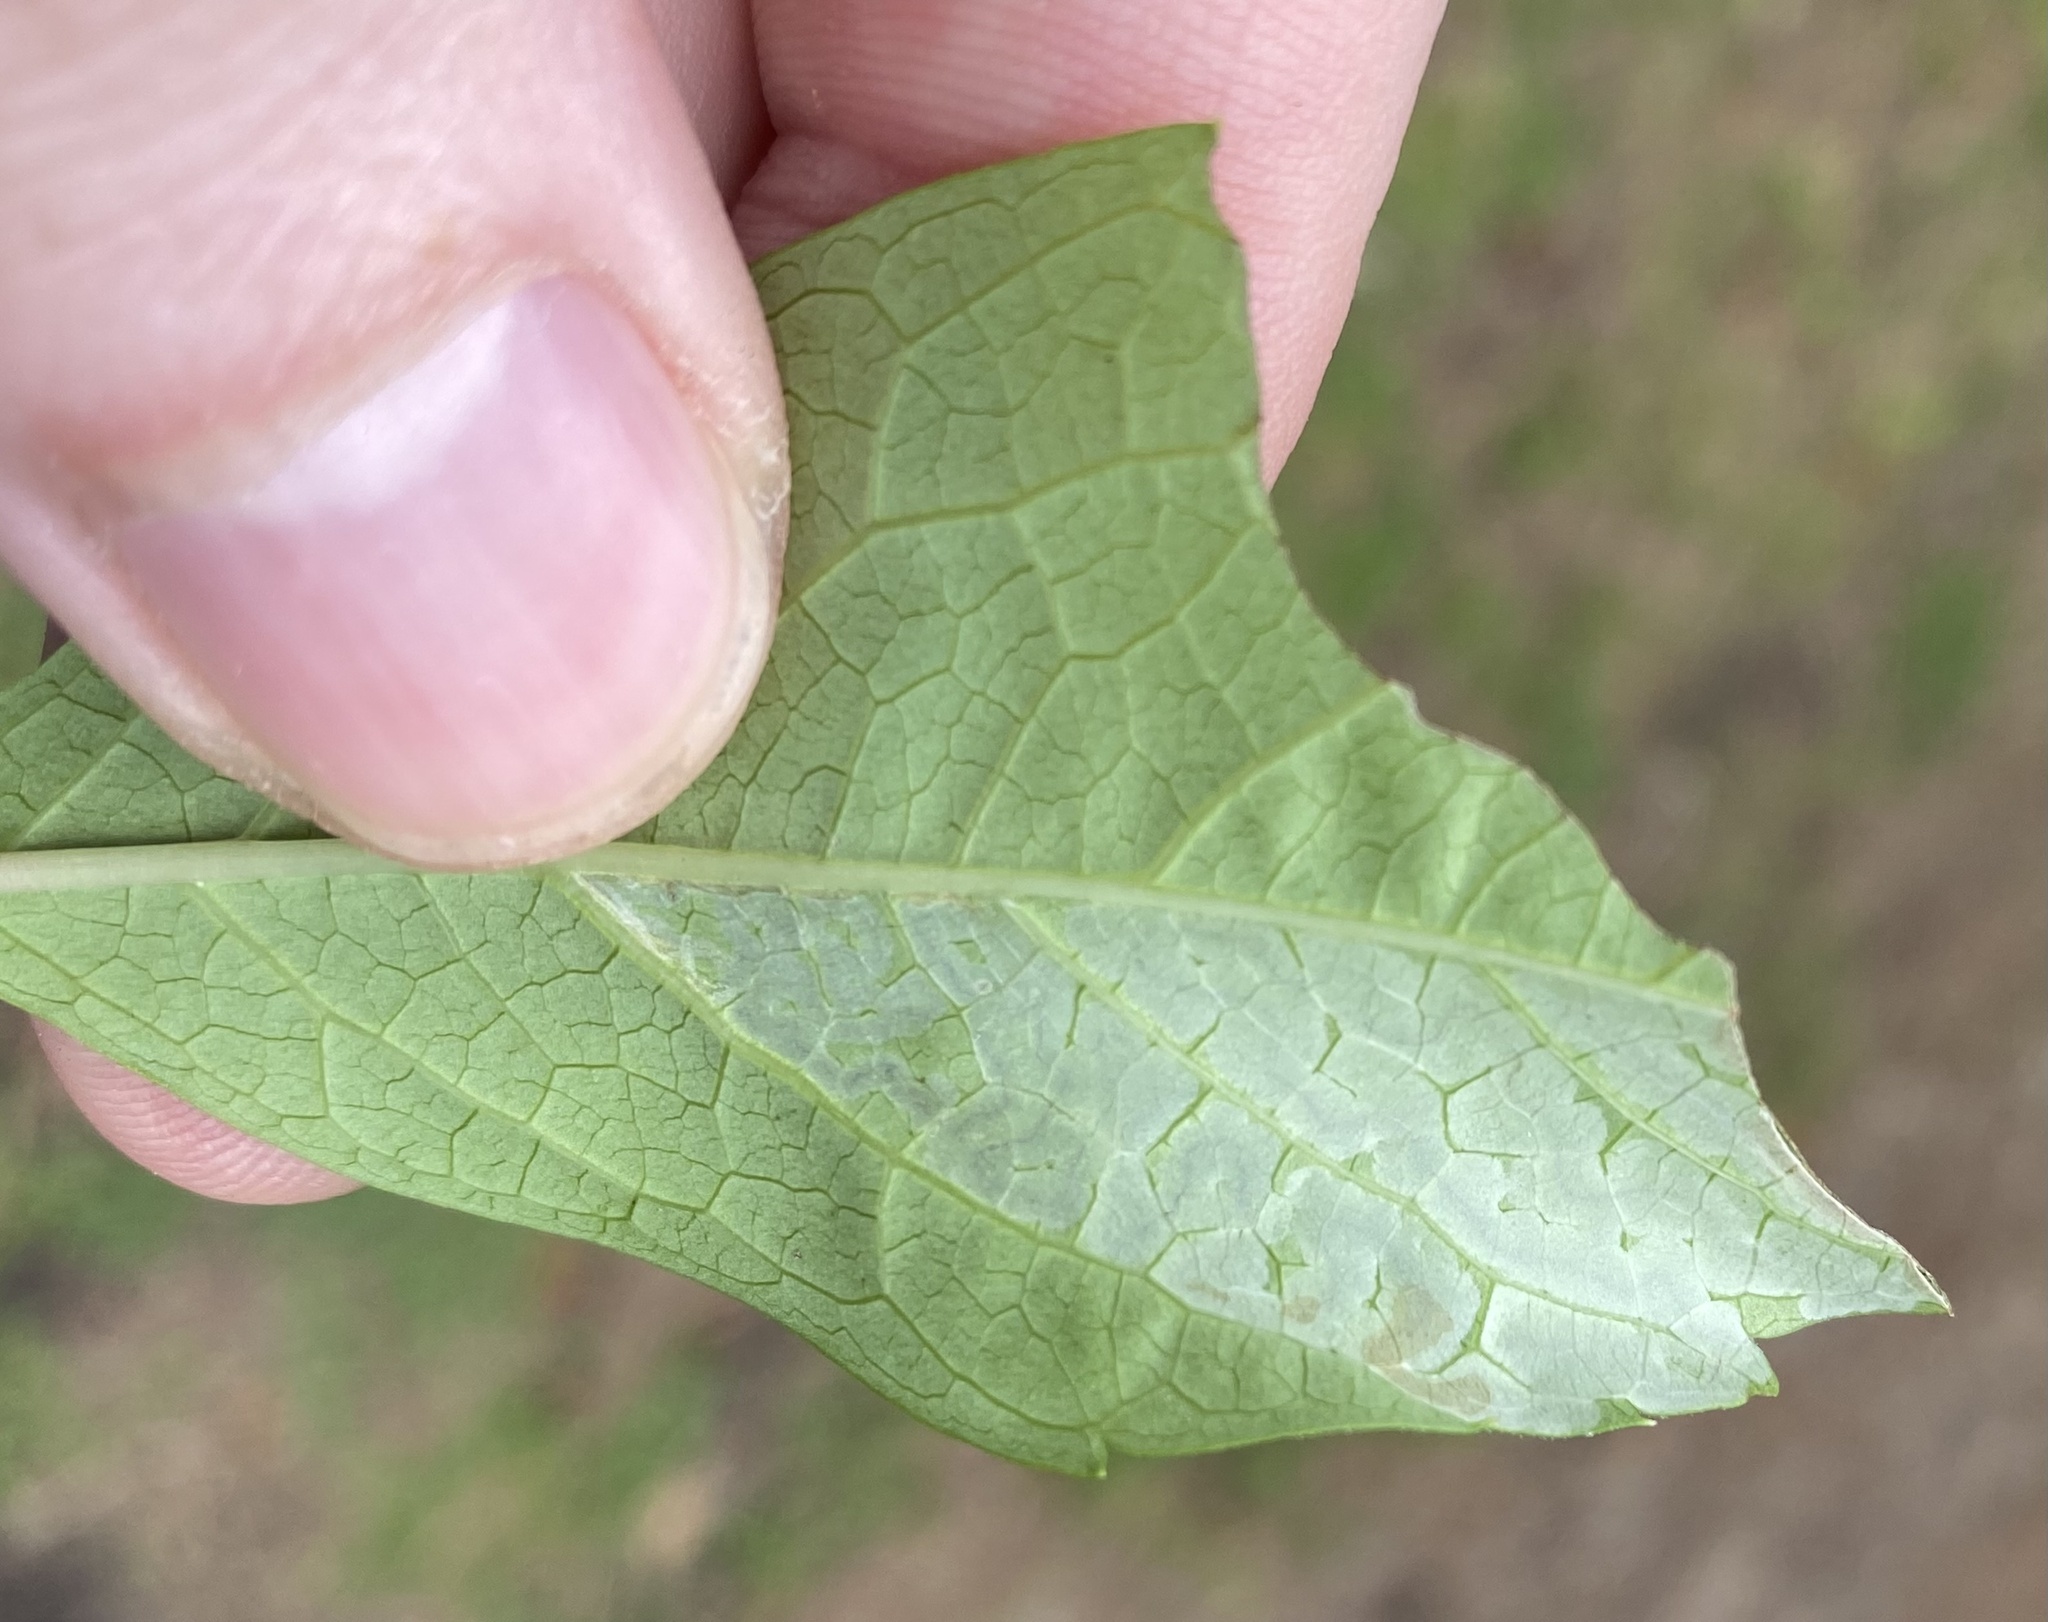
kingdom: Animalia
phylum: Arthropoda
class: Insecta
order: Lepidoptera
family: Gracillariidae
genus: Phyllocnistis
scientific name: Phyllocnistis ampelopsiella
